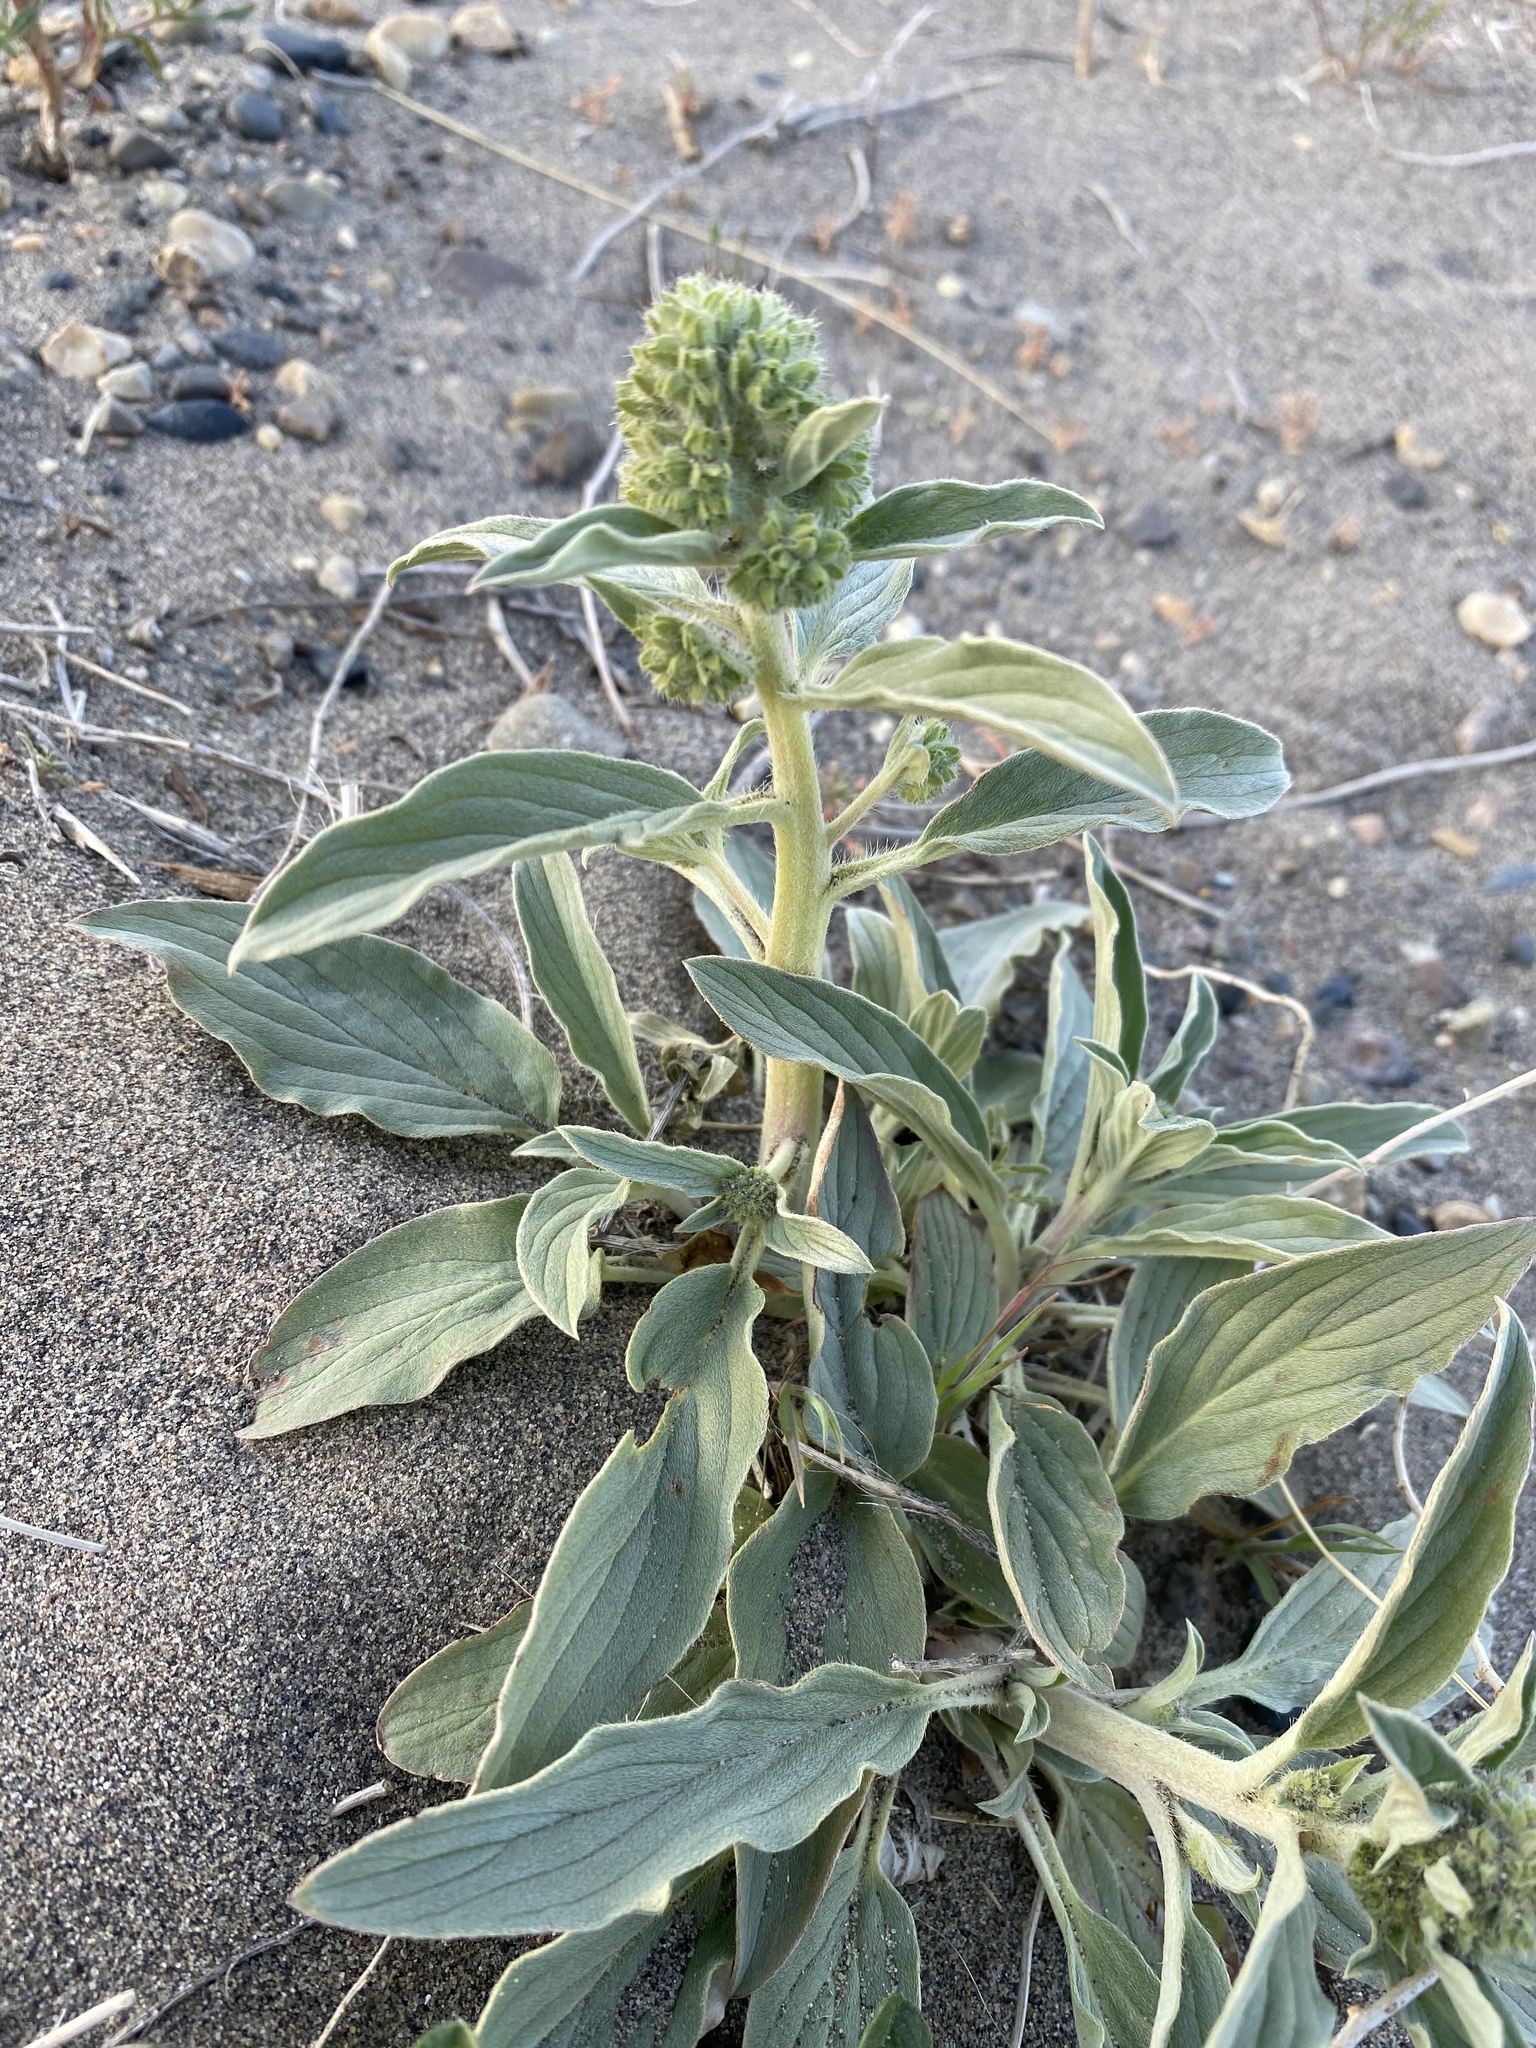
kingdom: Plantae
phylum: Tracheophyta
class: Magnoliopsida
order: Boraginales
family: Hydrophyllaceae
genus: Phacelia
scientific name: Phacelia hastata
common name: Silver-leaved phacelia
